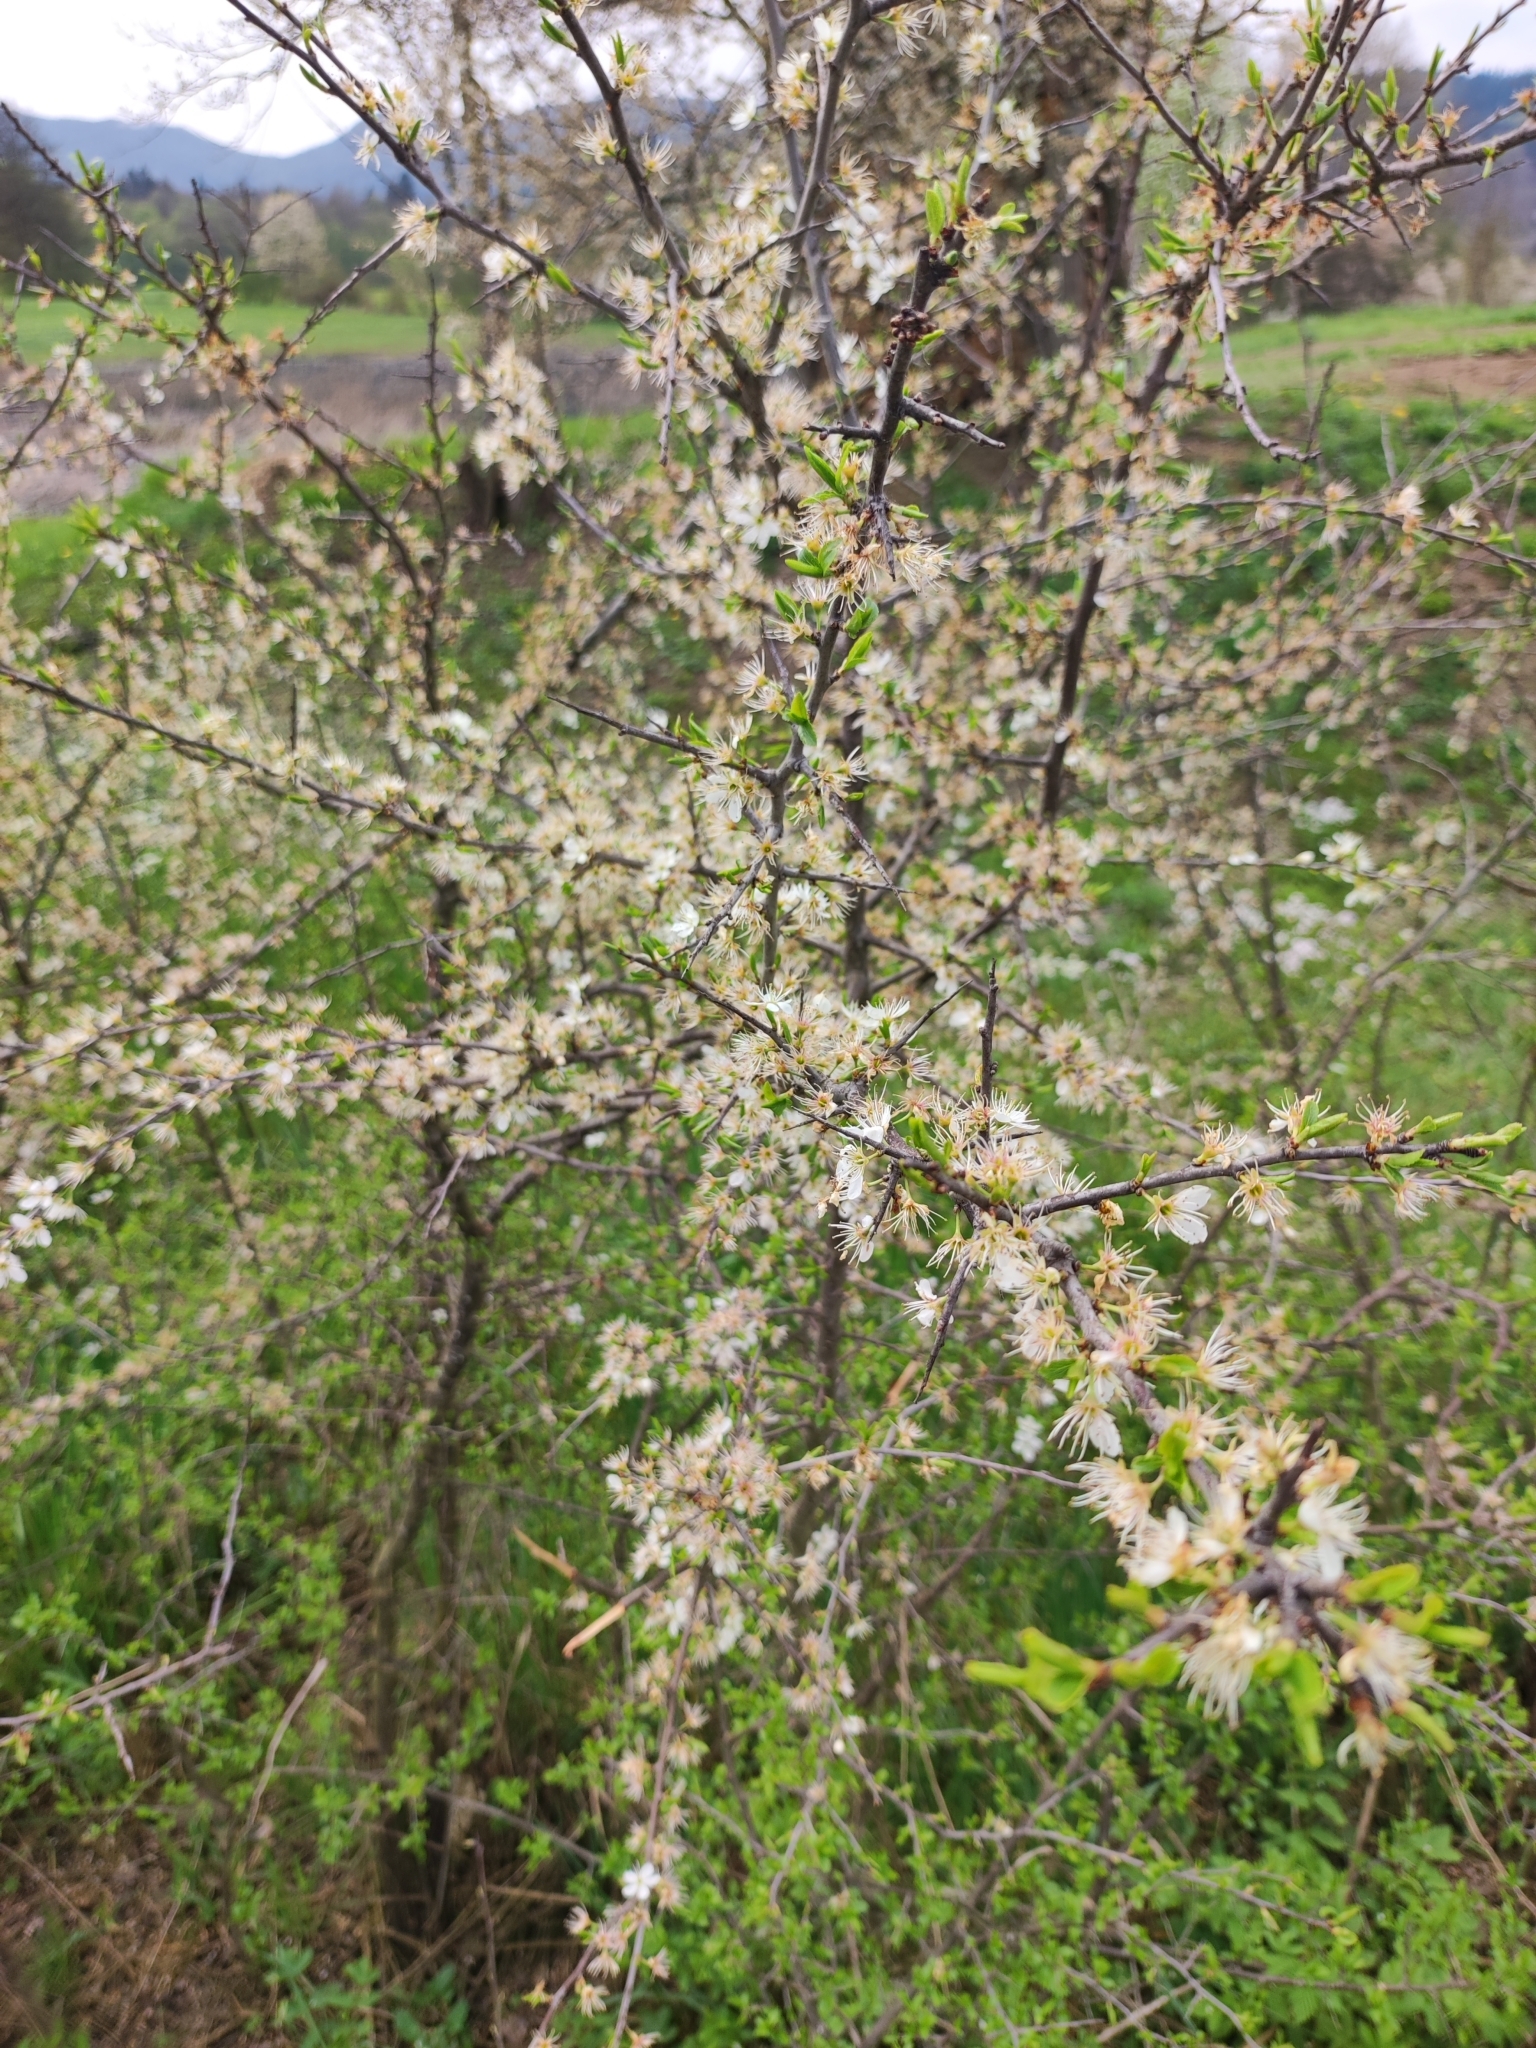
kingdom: Plantae
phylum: Tracheophyta
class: Magnoliopsida
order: Rosales
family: Rosaceae
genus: Prunus
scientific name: Prunus spinosa
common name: Blackthorn
